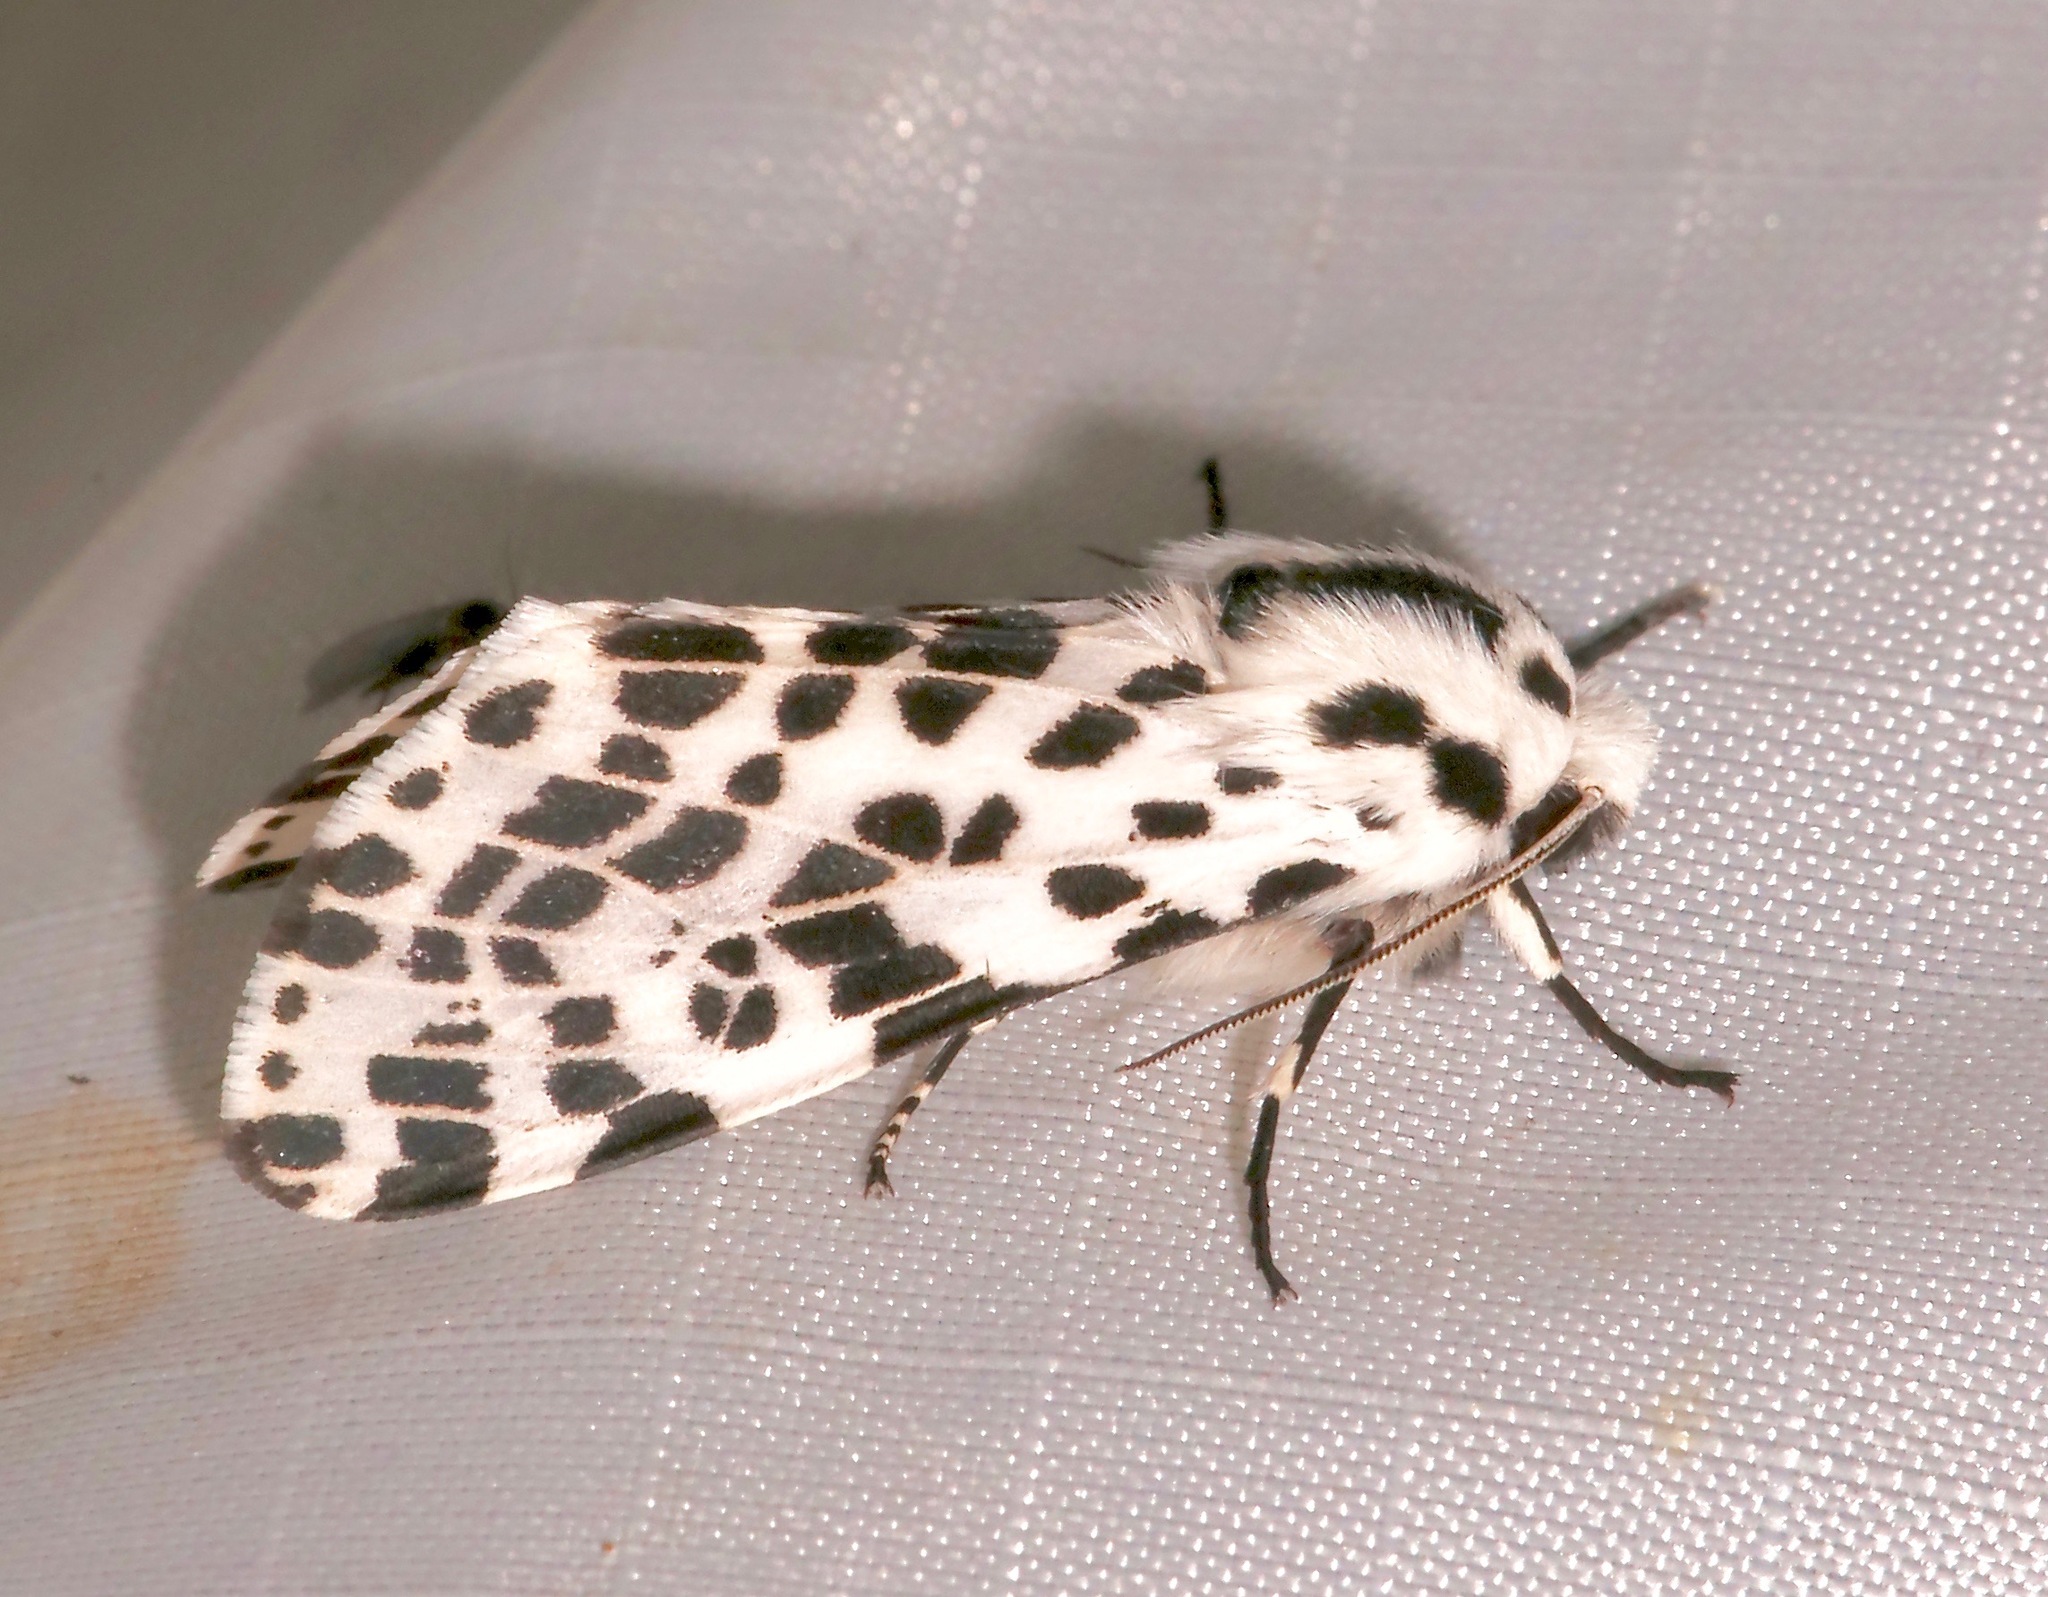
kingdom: Animalia
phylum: Arthropoda
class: Insecta
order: Lepidoptera
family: Erebidae
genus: Hypercompe
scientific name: Hypercompe permaculata
